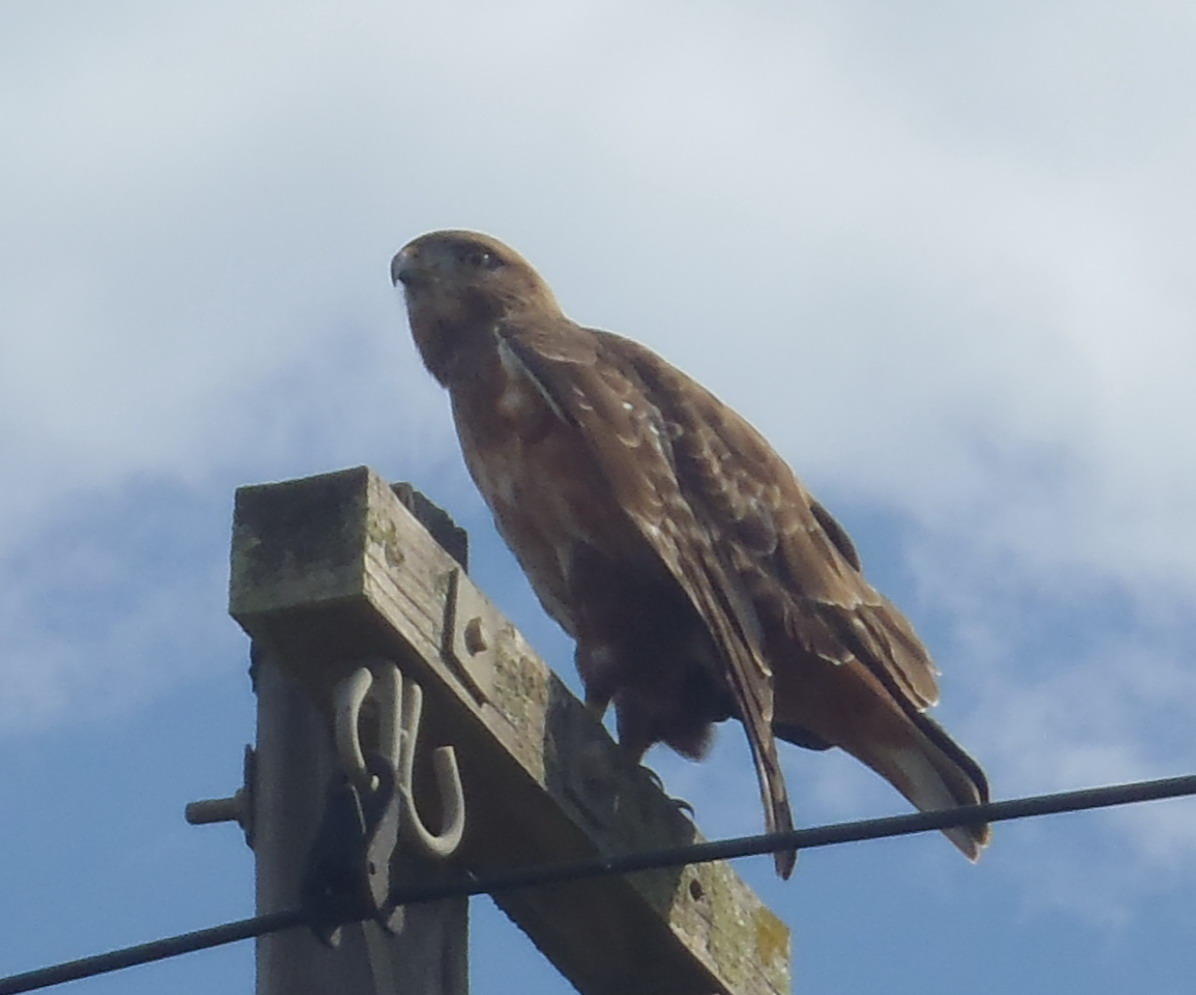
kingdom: Animalia
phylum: Chordata
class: Aves
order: Accipitriformes
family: Accipitridae
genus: Buteo
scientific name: Buteo buteo
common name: Common buzzard
